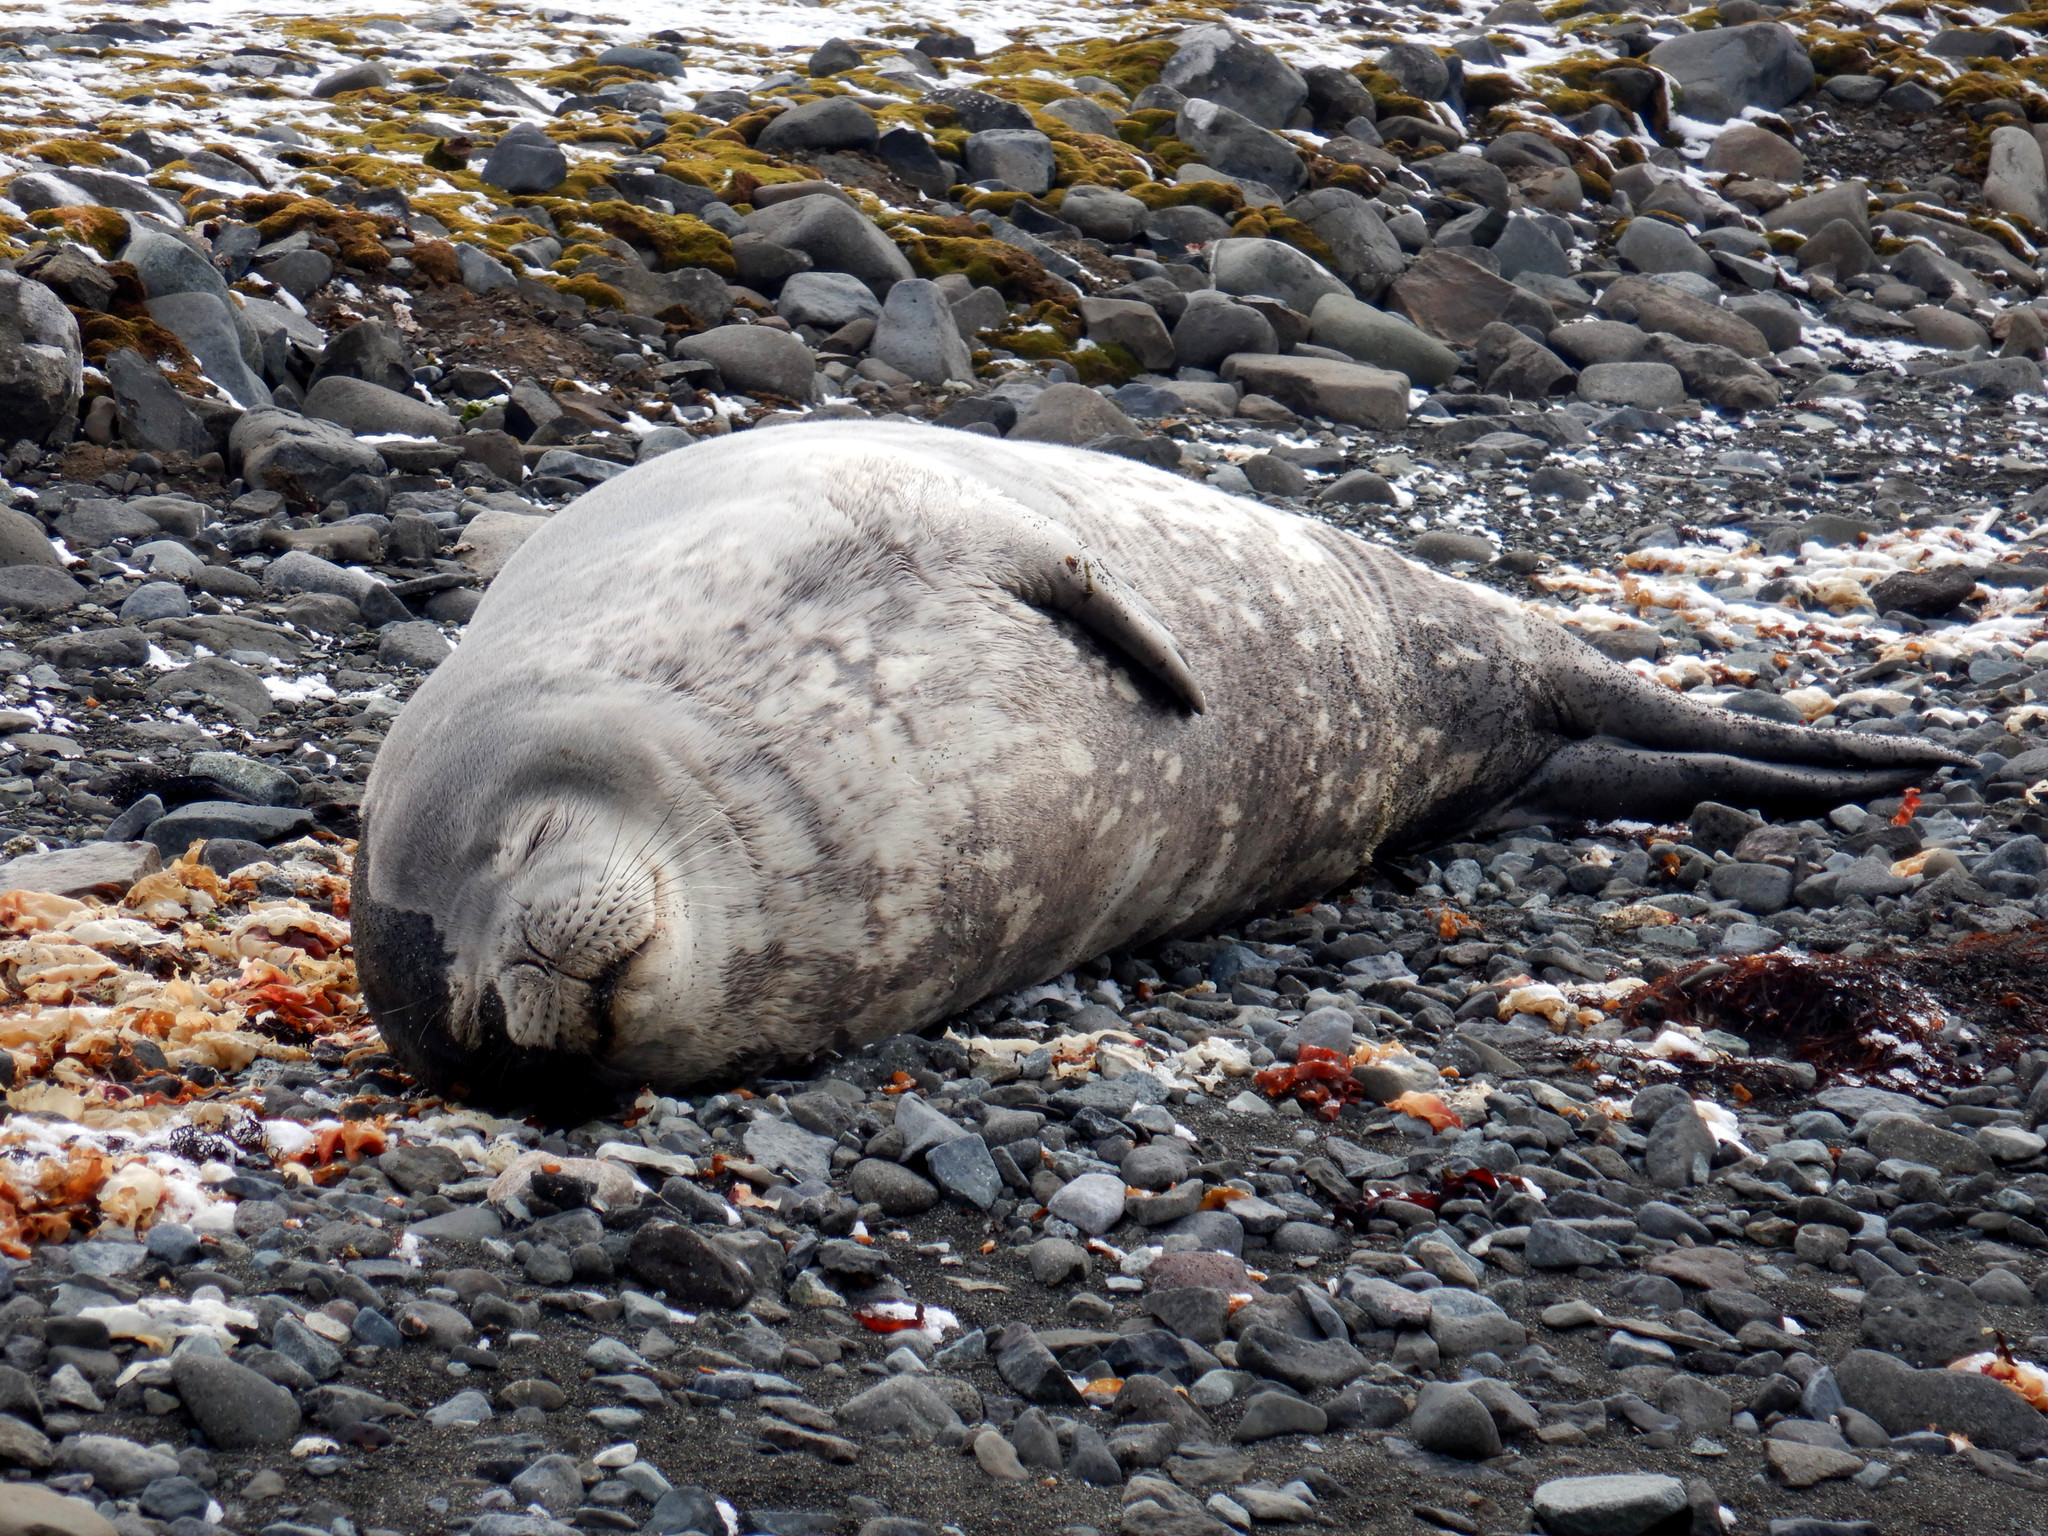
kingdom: Animalia
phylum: Chordata
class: Mammalia
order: Carnivora
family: Phocidae
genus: Leptonychotes
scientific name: Leptonychotes weddellii
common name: Weddell seal
